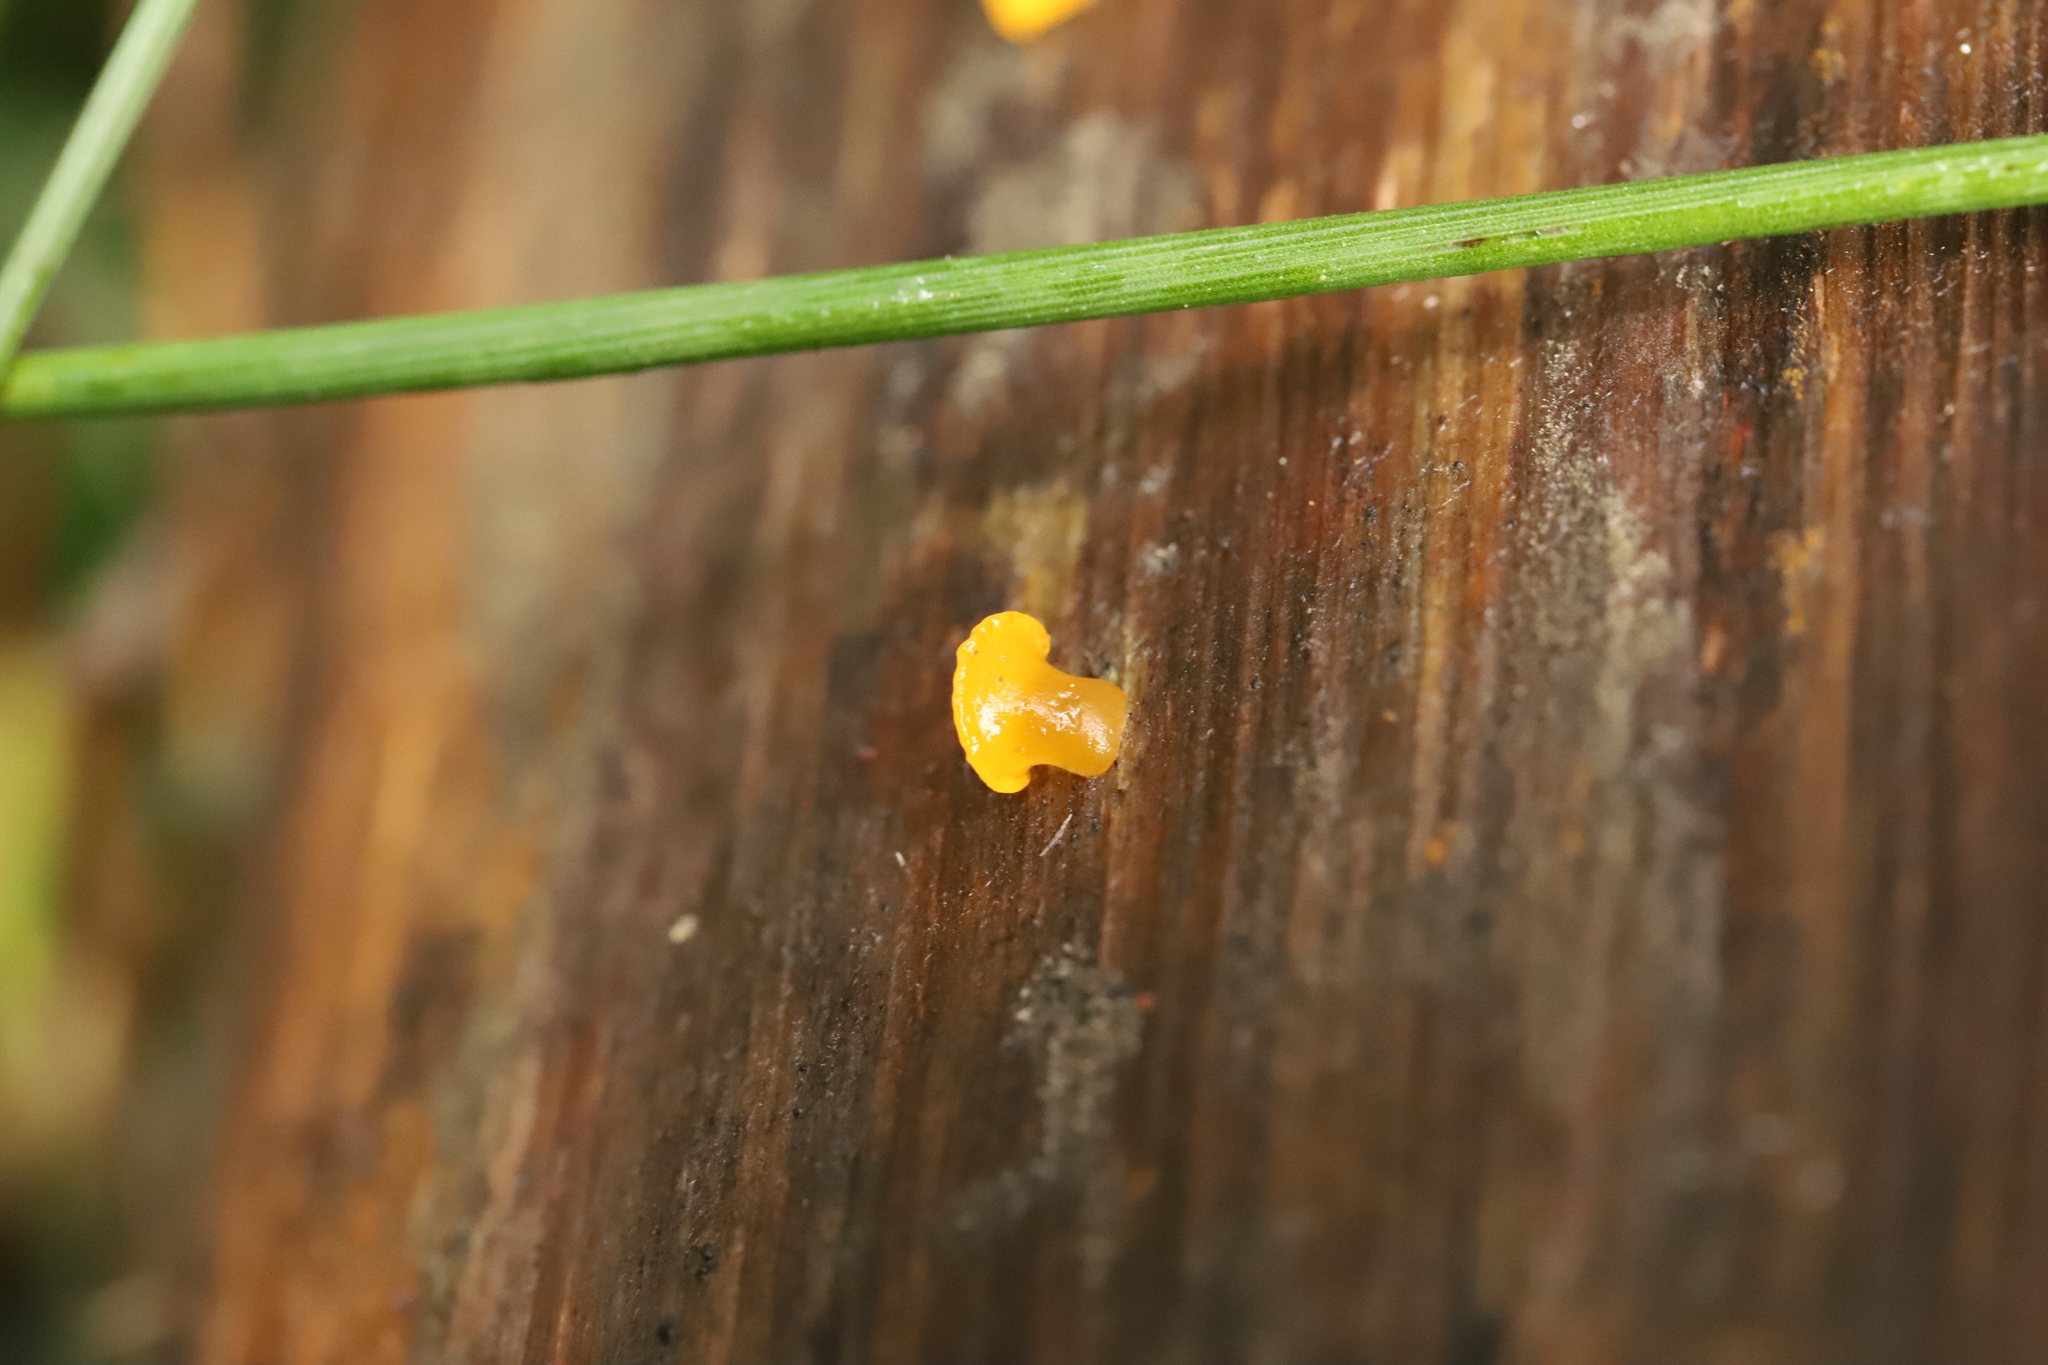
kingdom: Fungi
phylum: Basidiomycota
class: Dacrymycetes
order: Dacrymycetales
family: Dacrymycetaceae
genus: Heterotextus
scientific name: Heterotextus peziziformis
